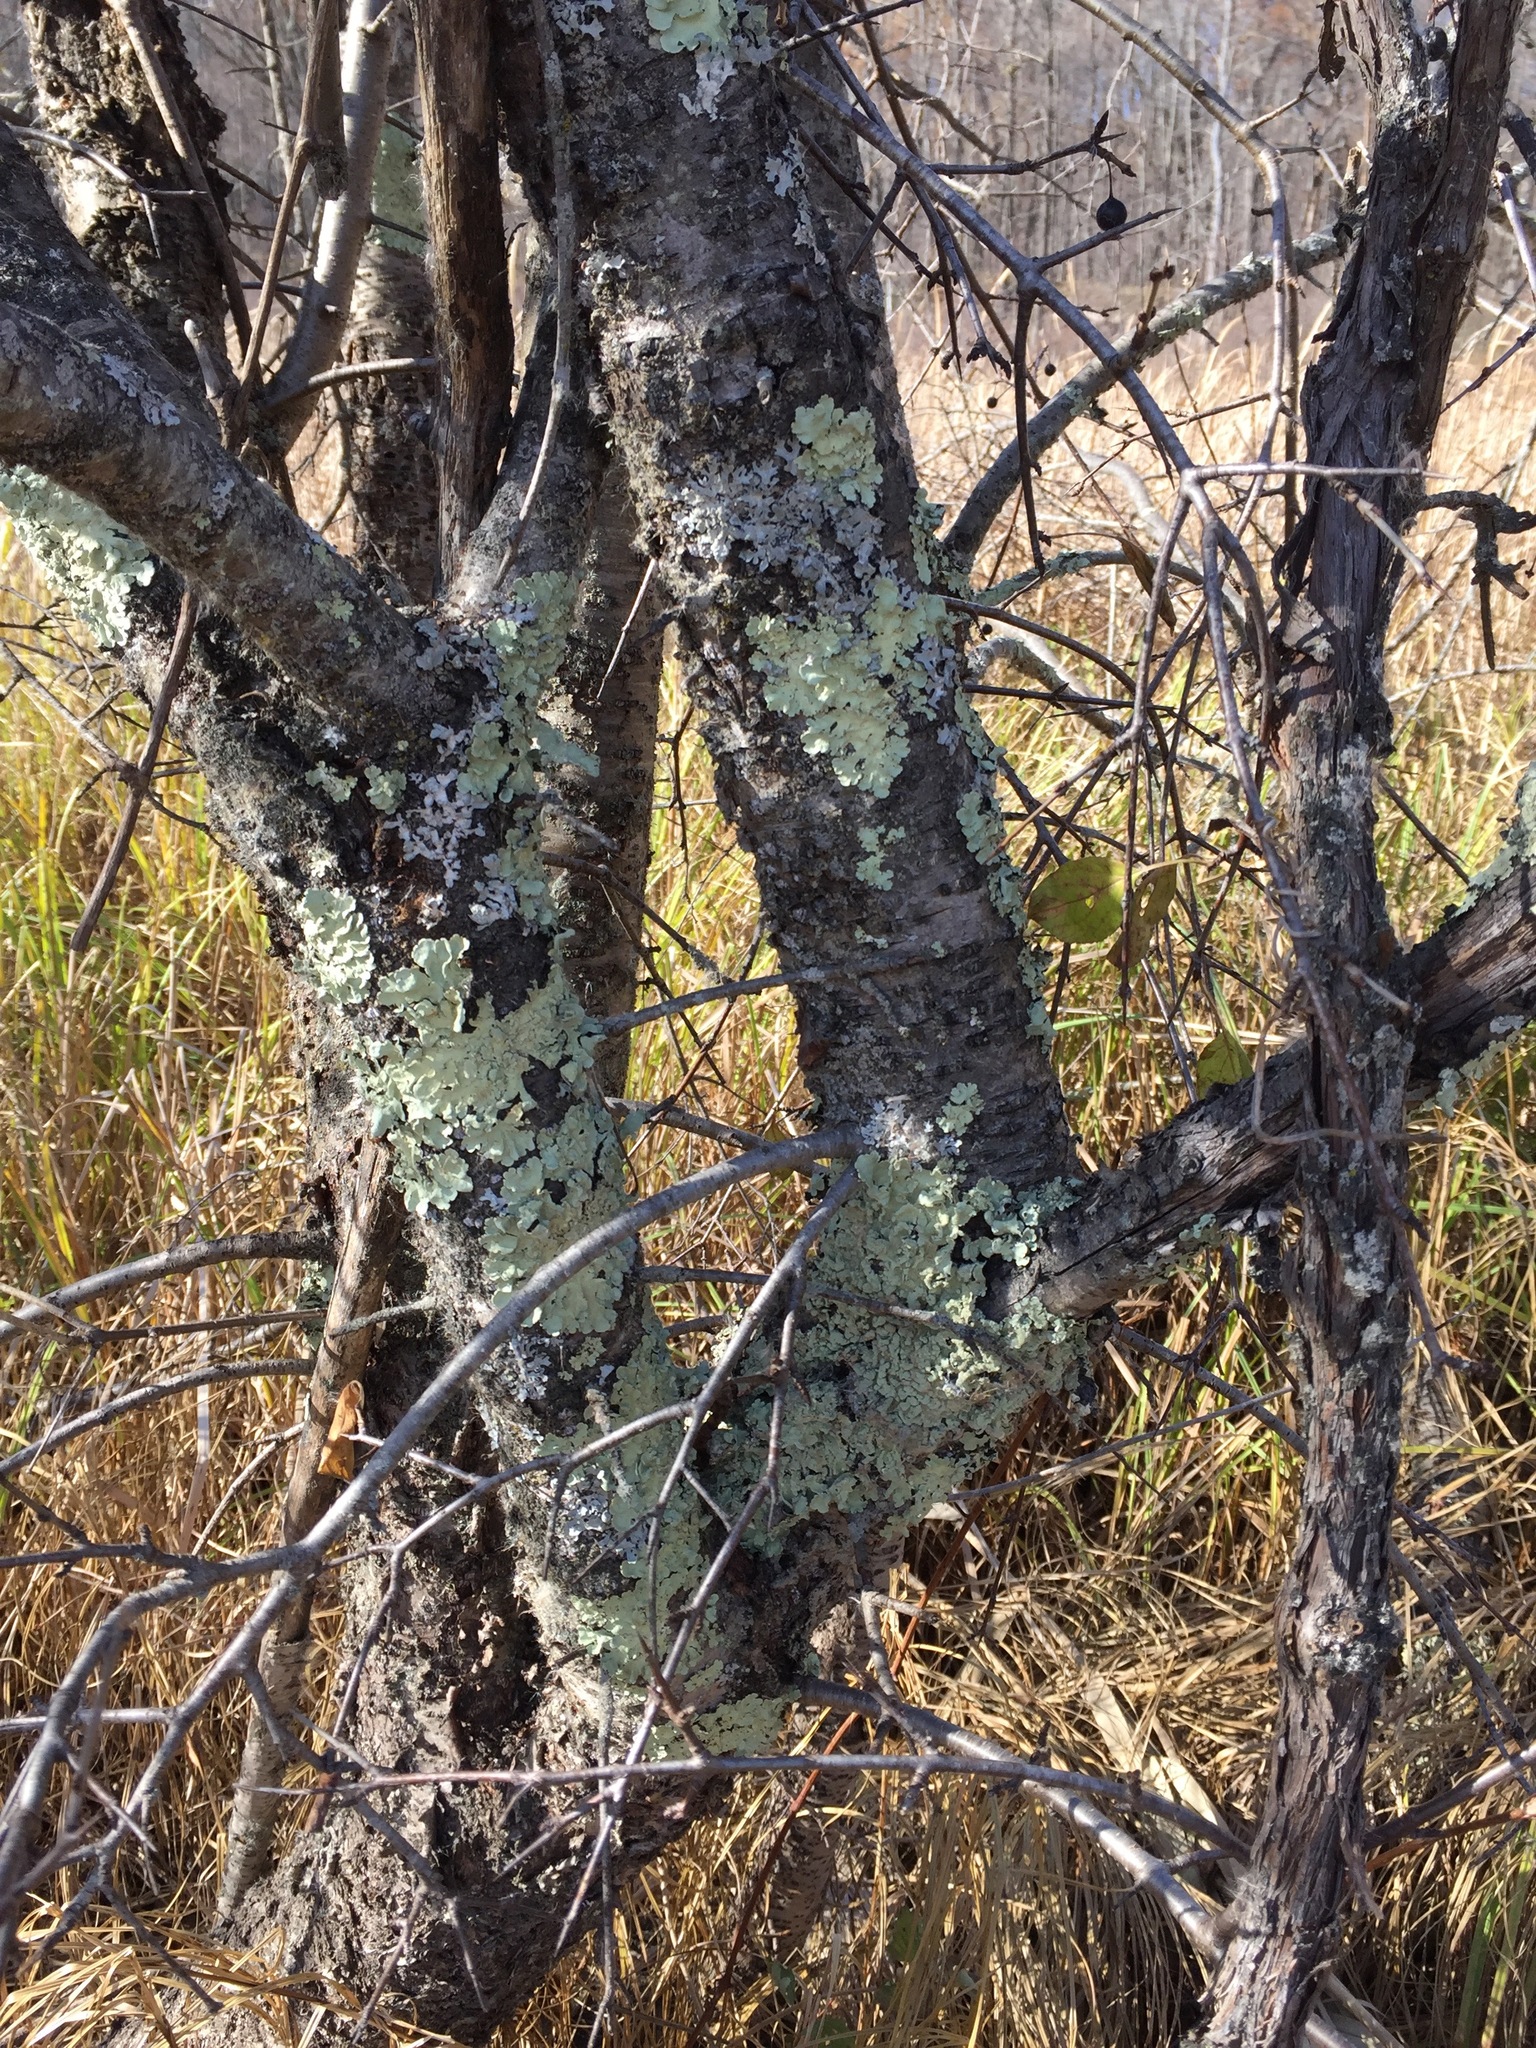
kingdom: Plantae
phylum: Tracheophyta
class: Magnoliopsida
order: Rosales
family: Rhamnaceae
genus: Rhamnus
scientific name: Rhamnus cathartica
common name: Common buckthorn
